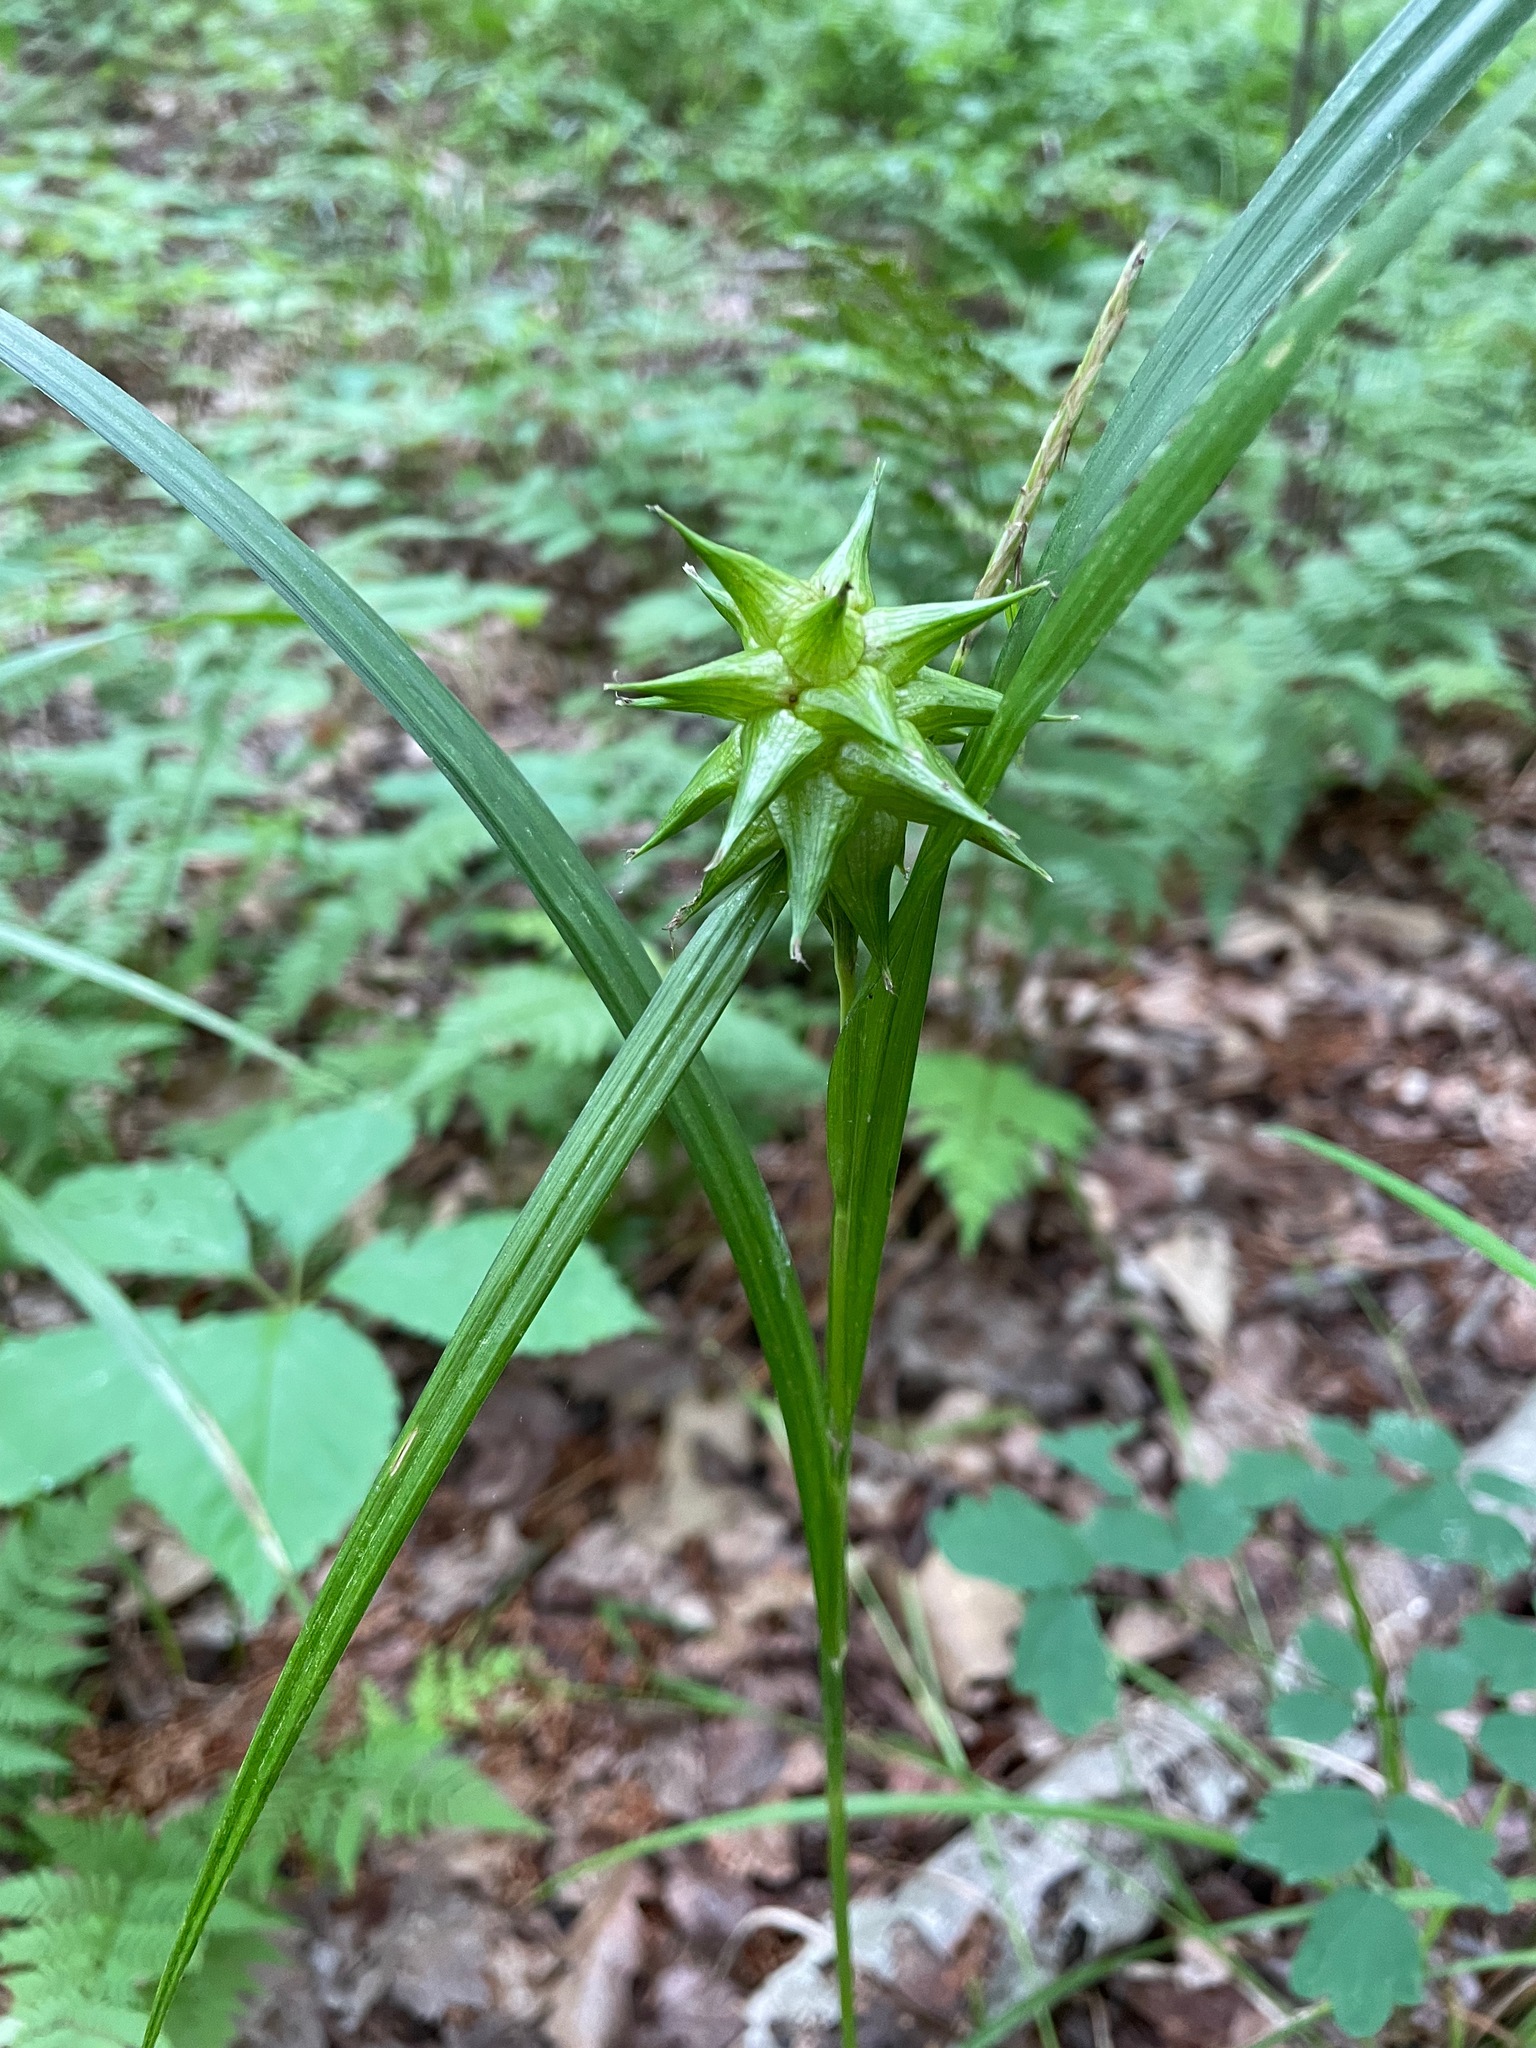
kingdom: Plantae
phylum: Tracheophyta
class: Liliopsida
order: Poales
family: Cyperaceae
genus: Carex
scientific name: Carex grayi
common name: Asa gray's sedge
